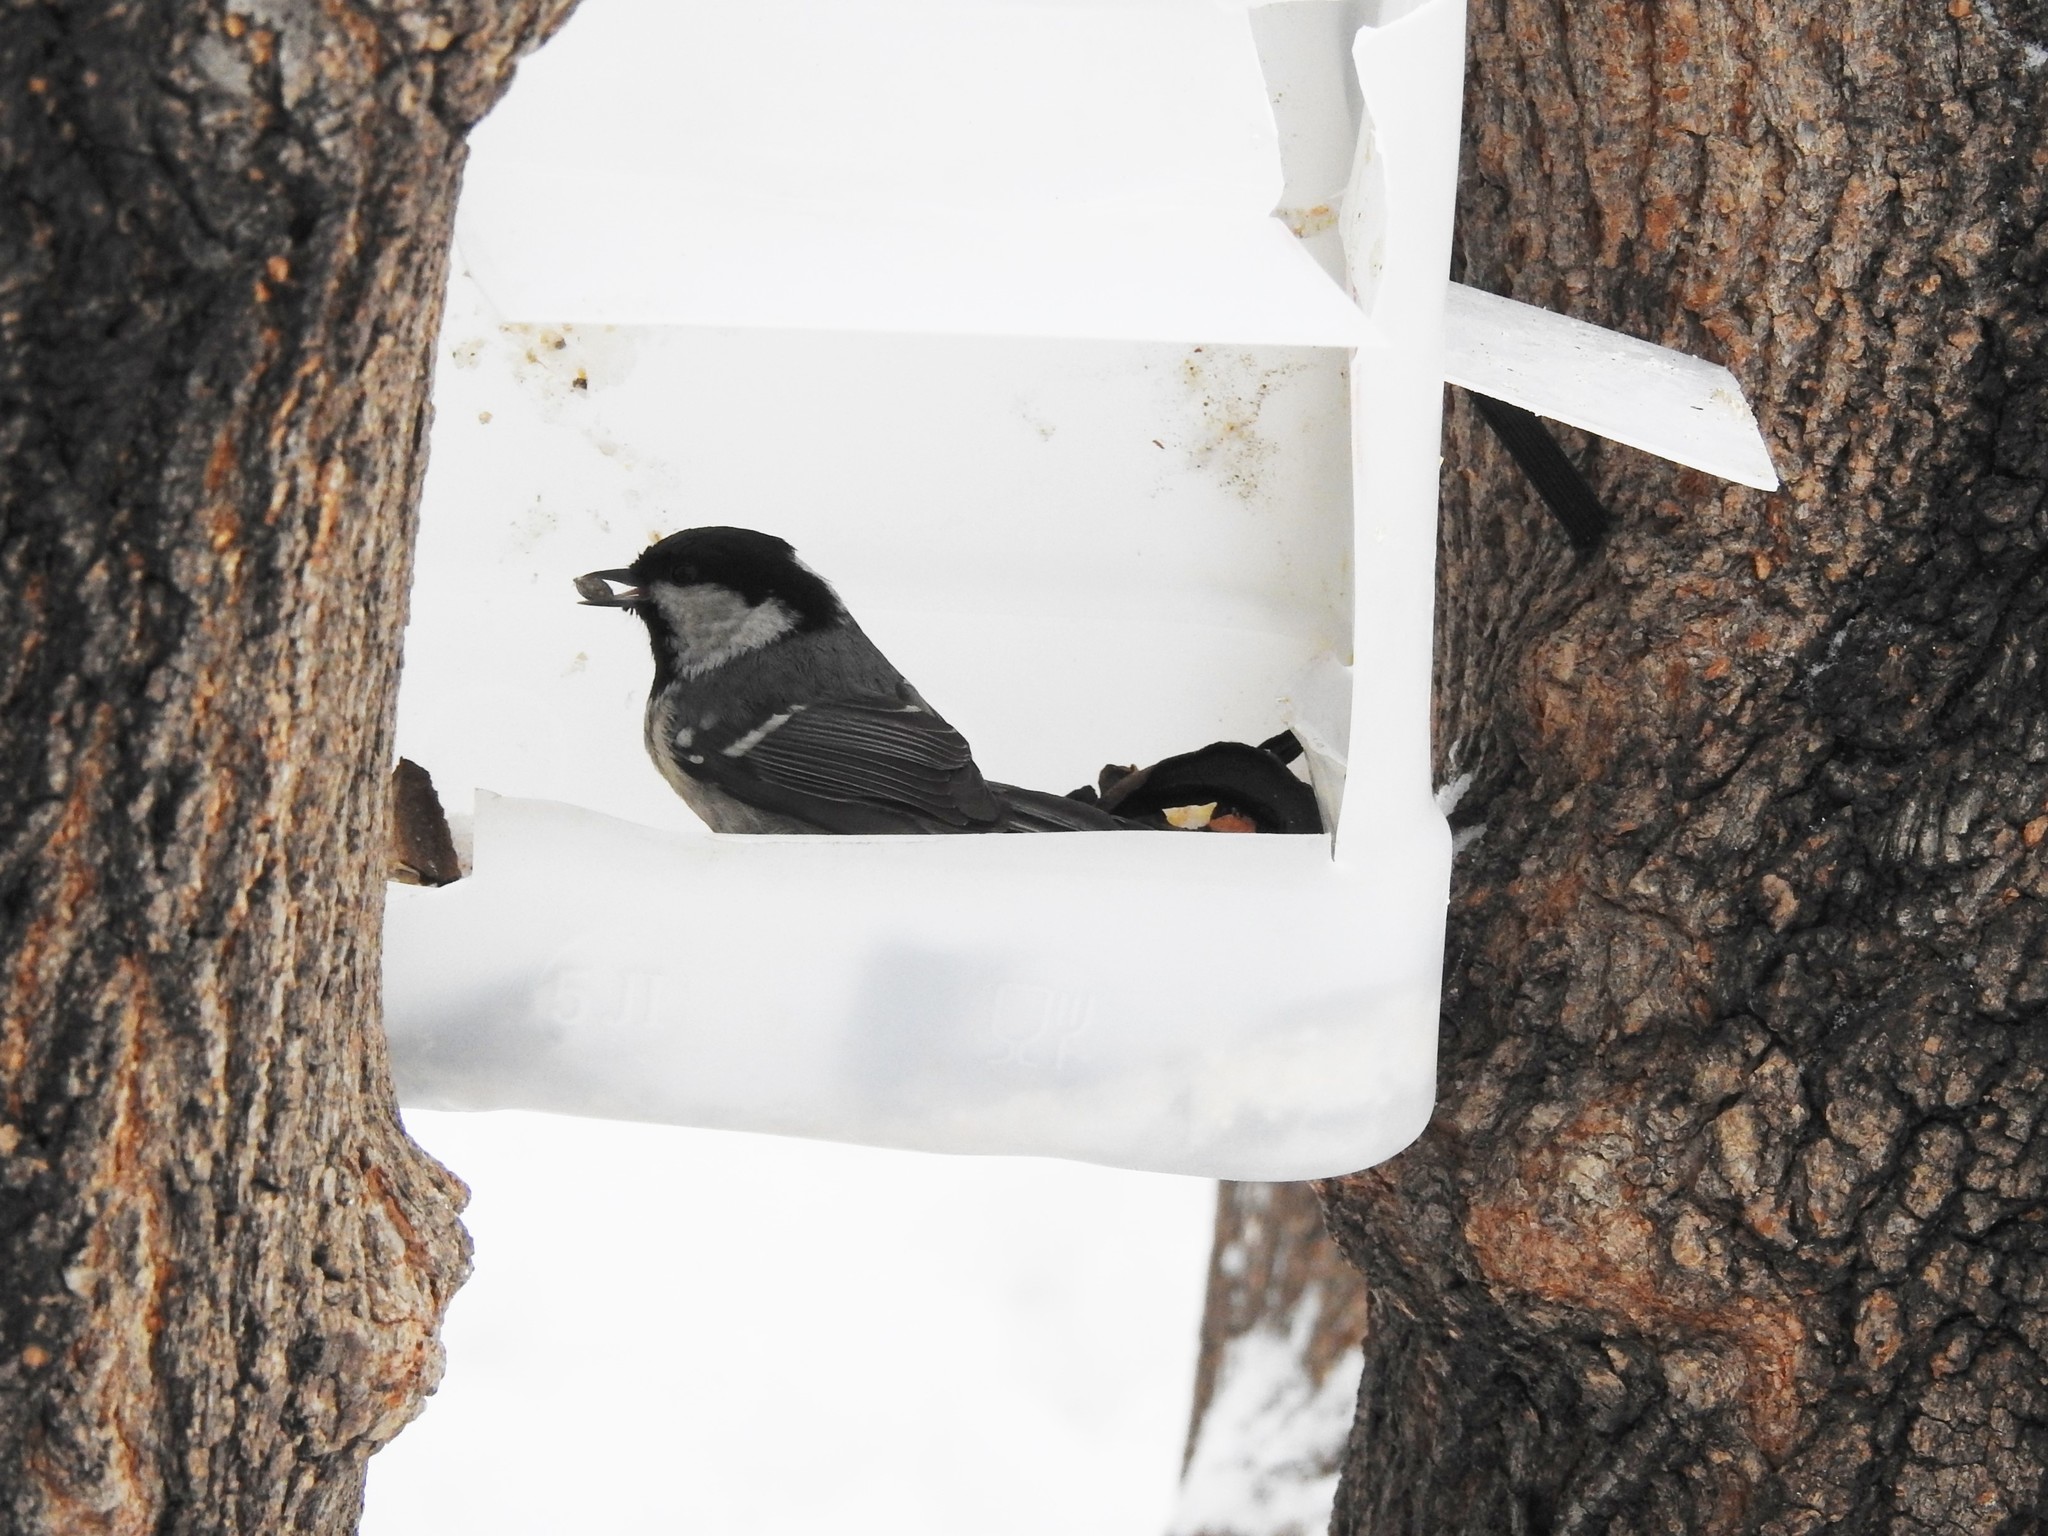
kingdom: Animalia
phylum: Chordata
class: Aves
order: Passeriformes
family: Paridae
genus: Periparus
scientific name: Periparus ater
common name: Coal tit
